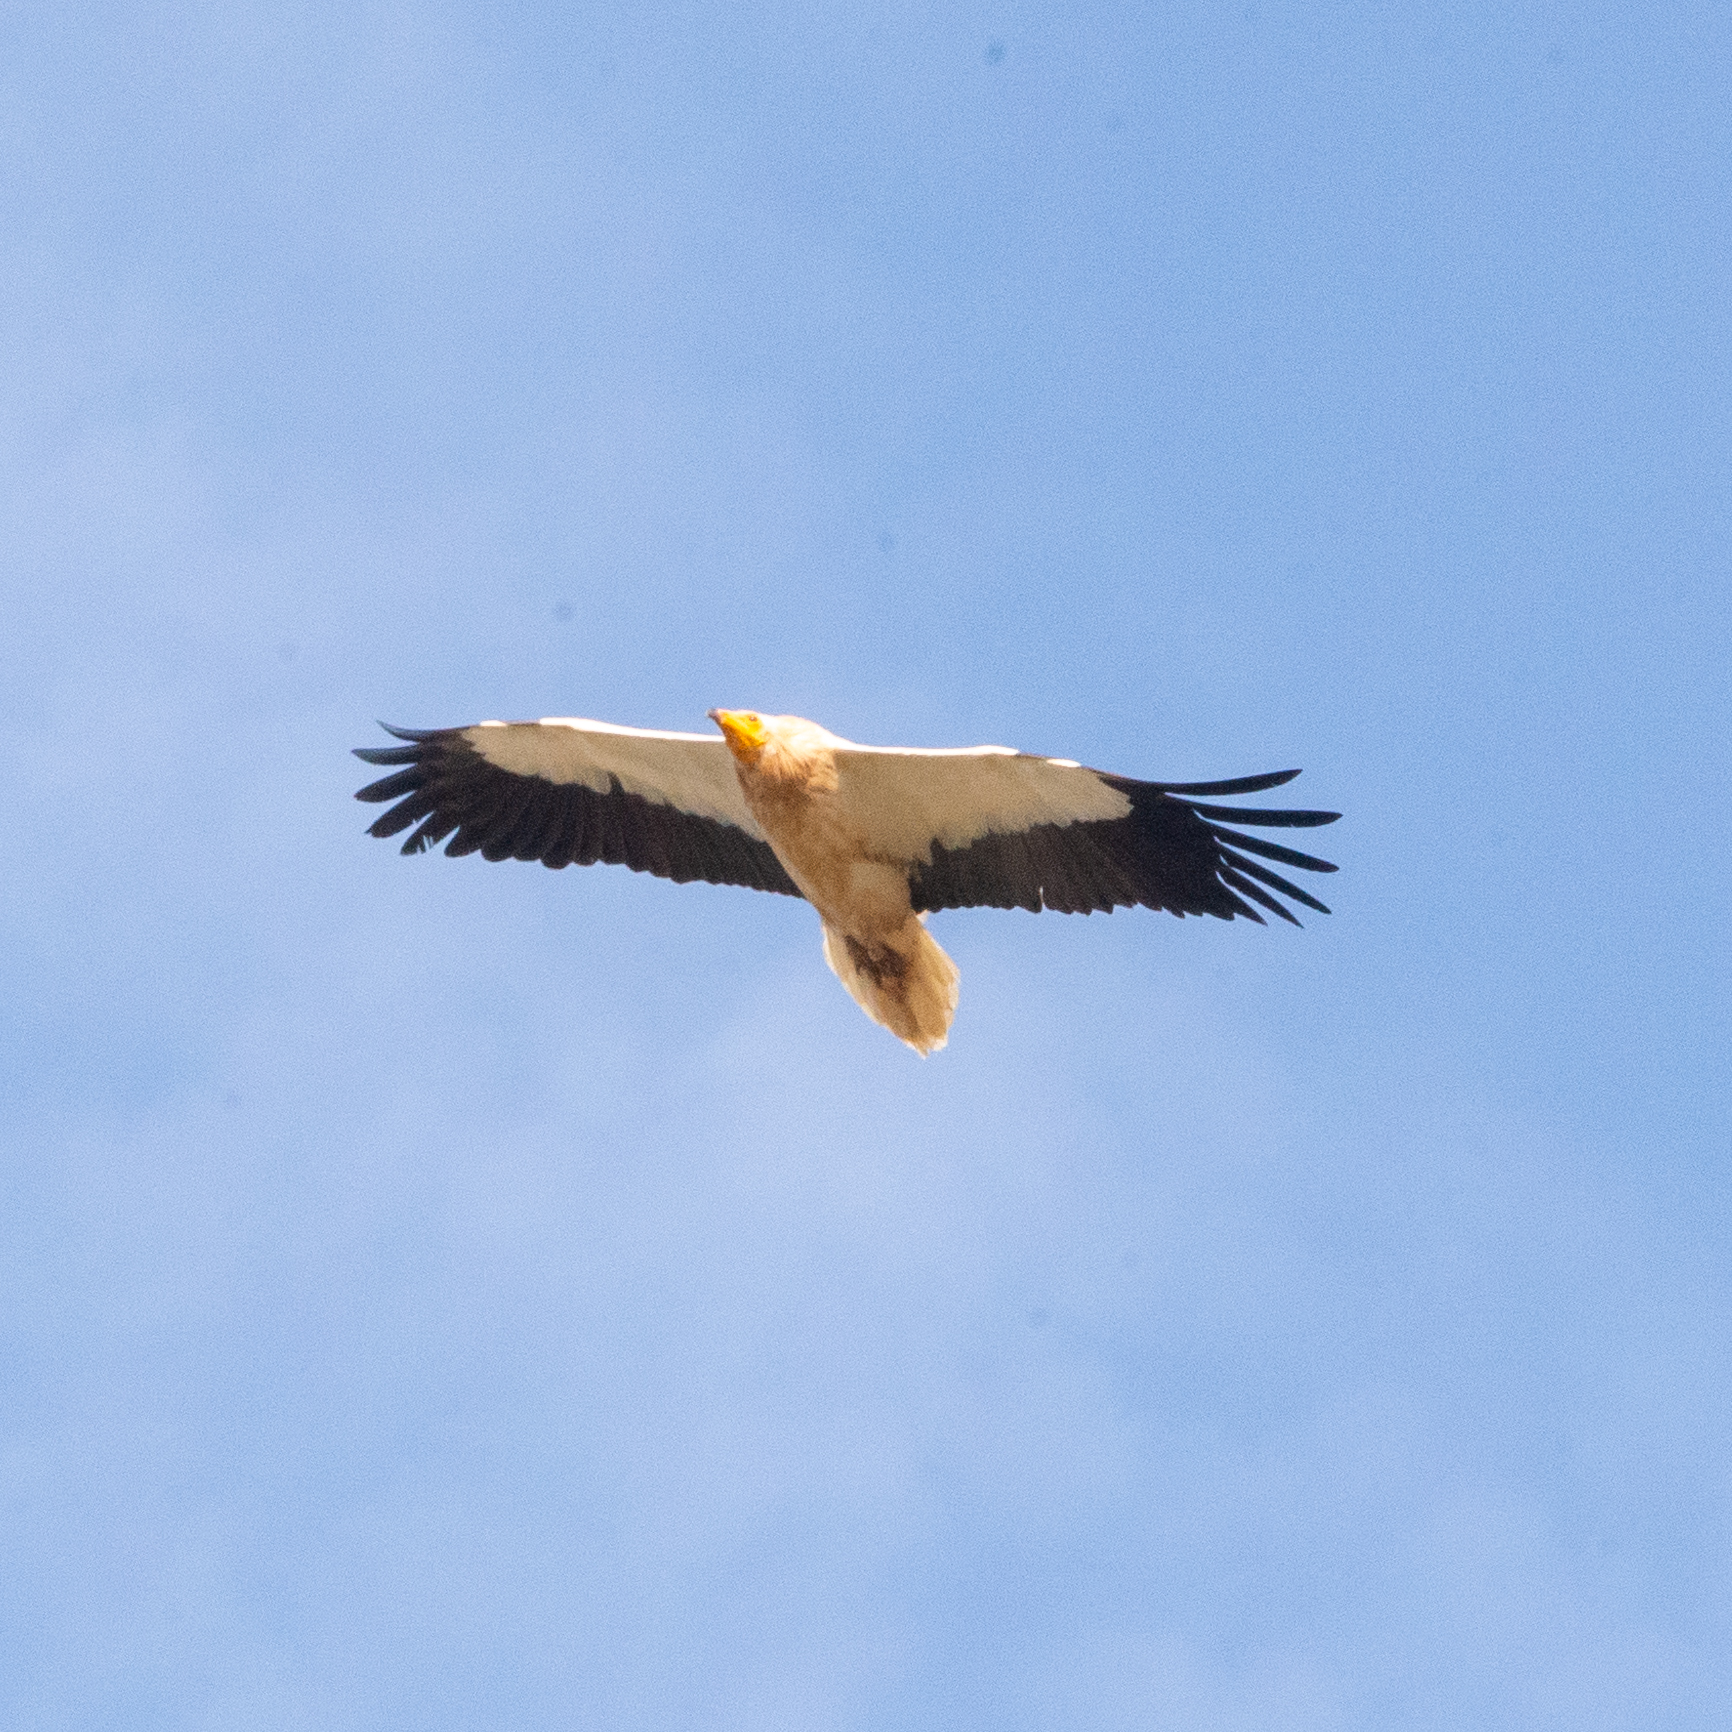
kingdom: Animalia
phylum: Chordata
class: Aves
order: Accipitriformes
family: Accipitridae
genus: Neophron
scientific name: Neophron percnopterus
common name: Egyptian vulture
